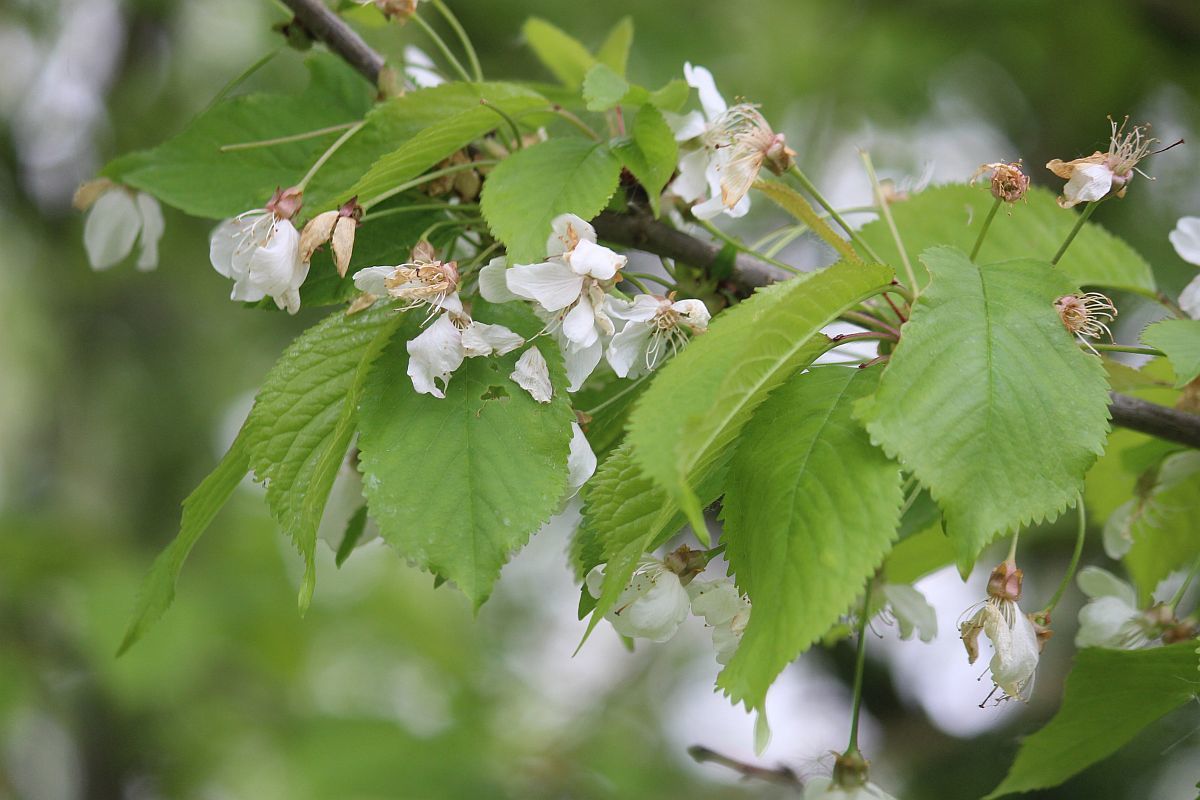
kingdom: Plantae
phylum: Tracheophyta
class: Magnoliopsida
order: Rosales
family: Rosaceae
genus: Prunus
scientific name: Prunus avium
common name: Sweet cherry
